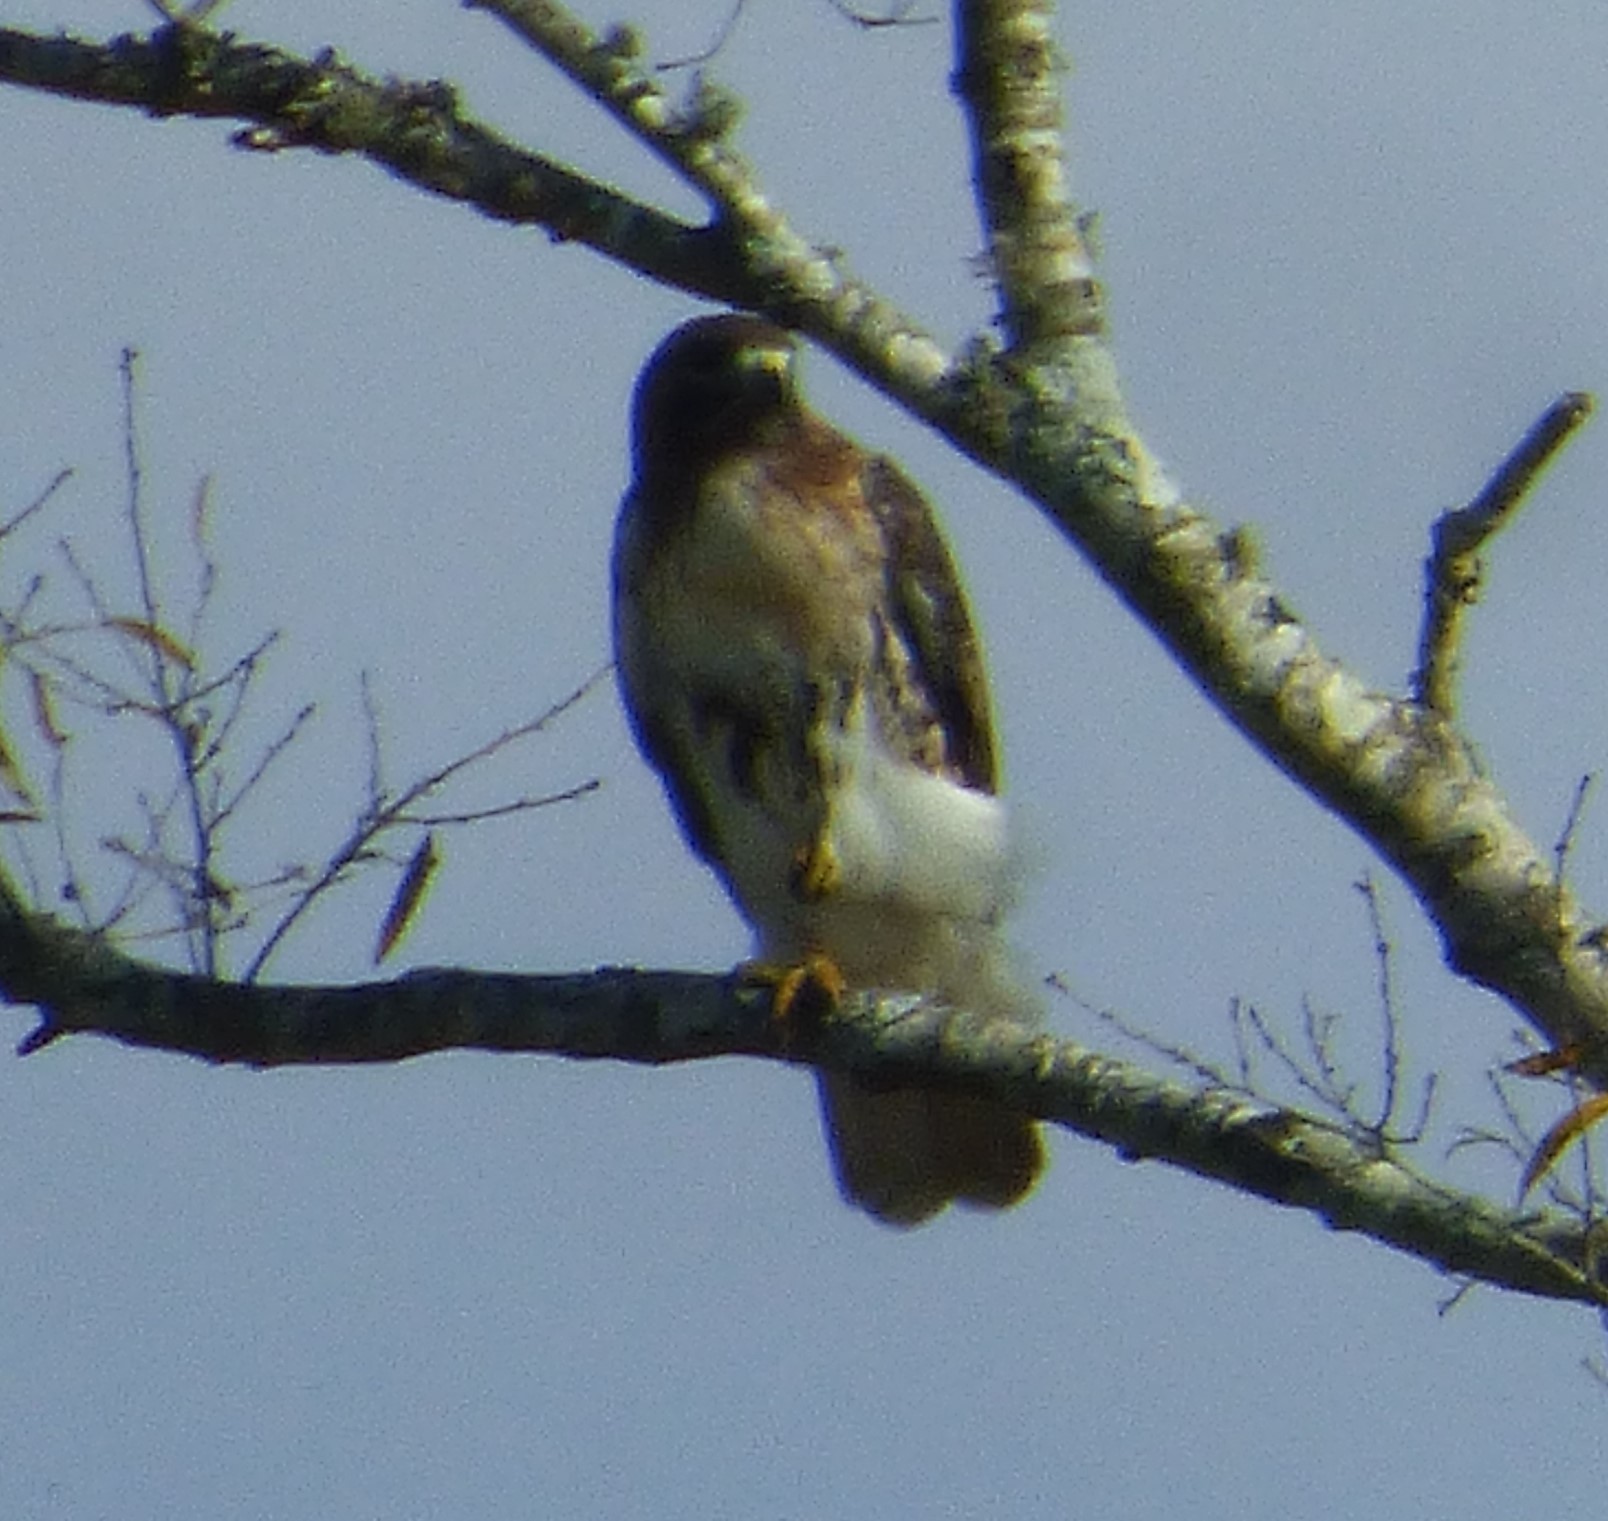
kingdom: Animalia
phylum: Chordata
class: Aves
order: Accipitriformes
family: Accipitridae
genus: Buteo
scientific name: Buteo jamaicensis
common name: Red-tailed hawk
